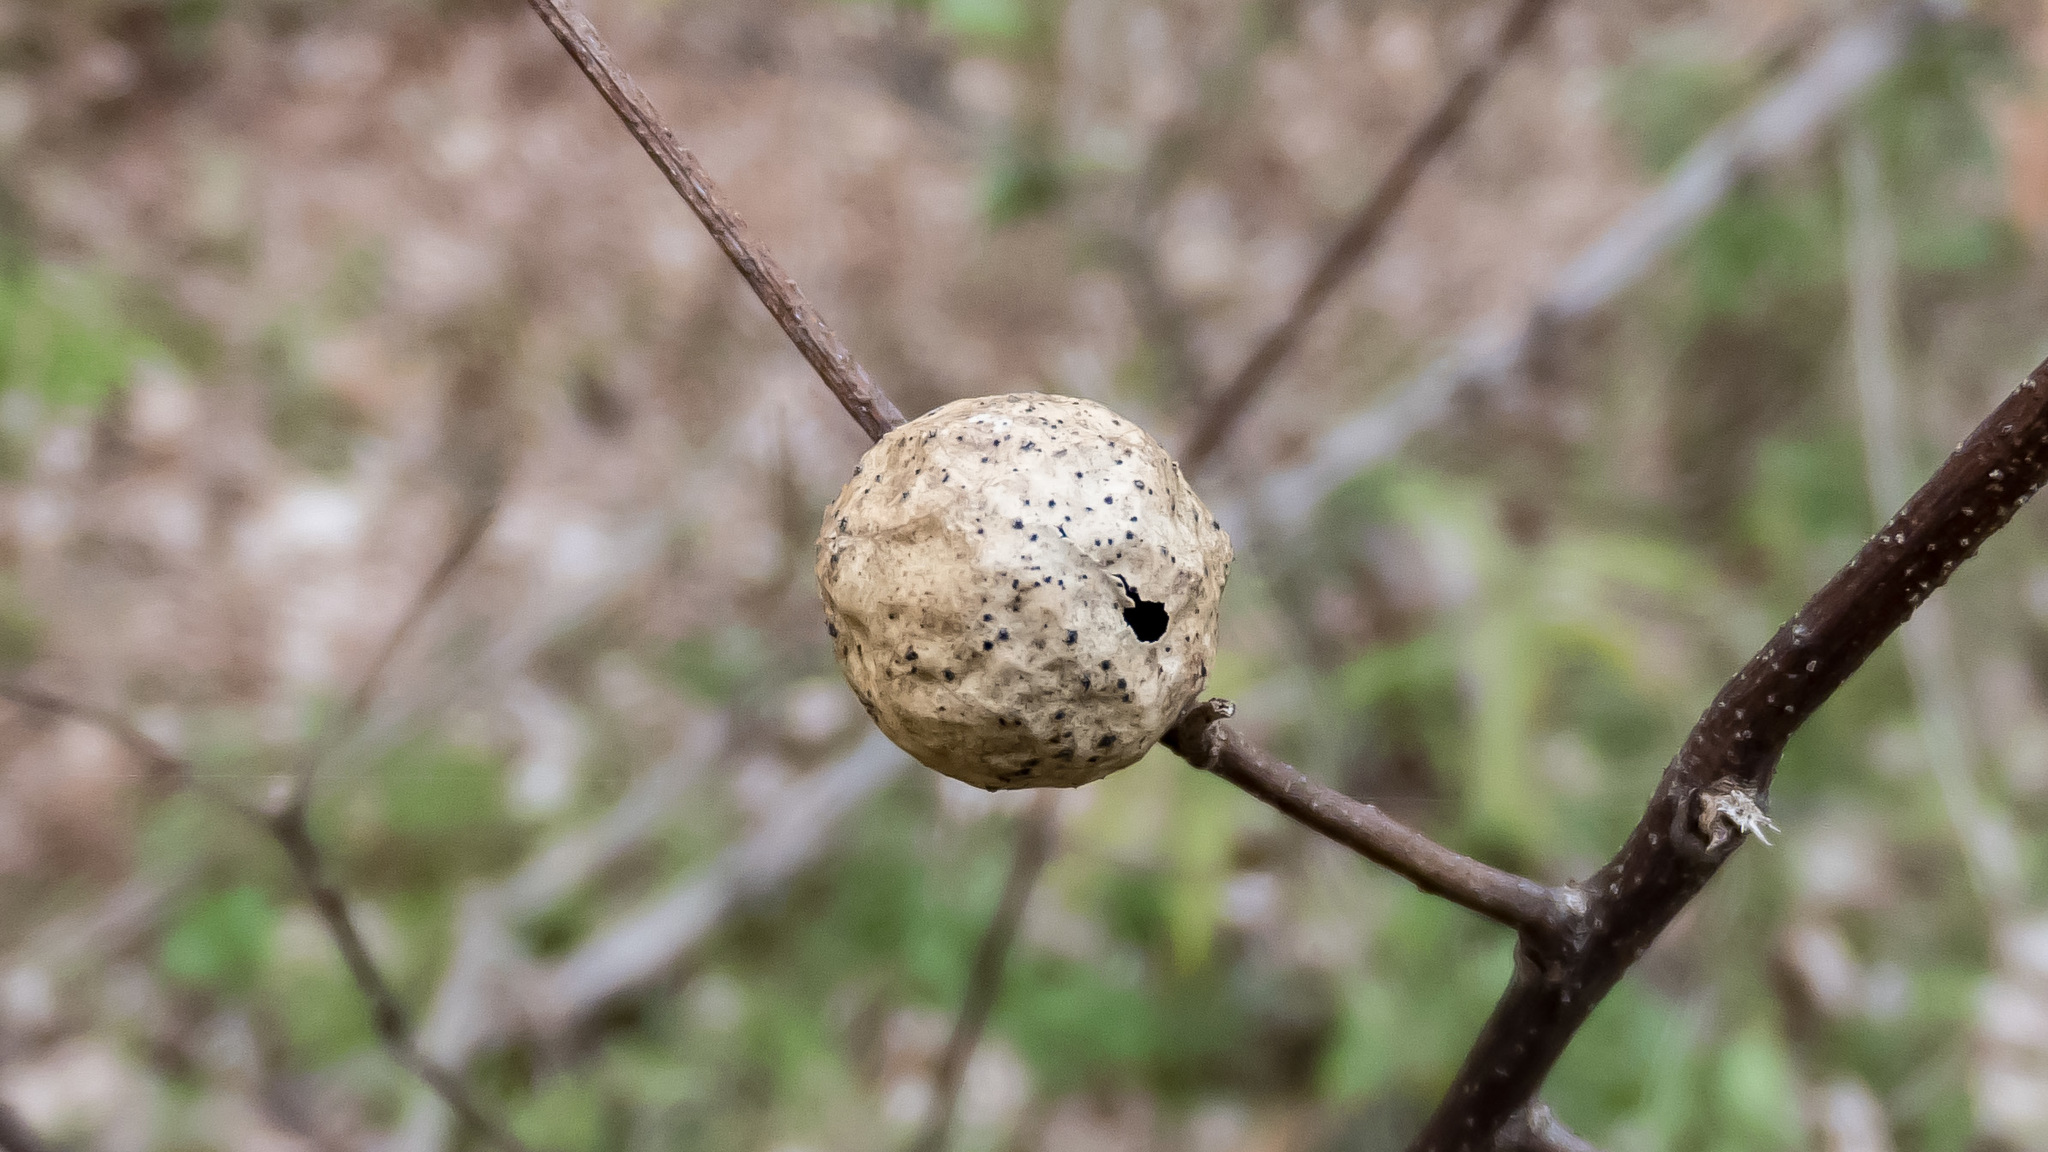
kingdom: Animalia
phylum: Arthropoda
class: Insecta
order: Hymenoptera
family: Cynipidae
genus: Amphibolips
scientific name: Amphibolips
